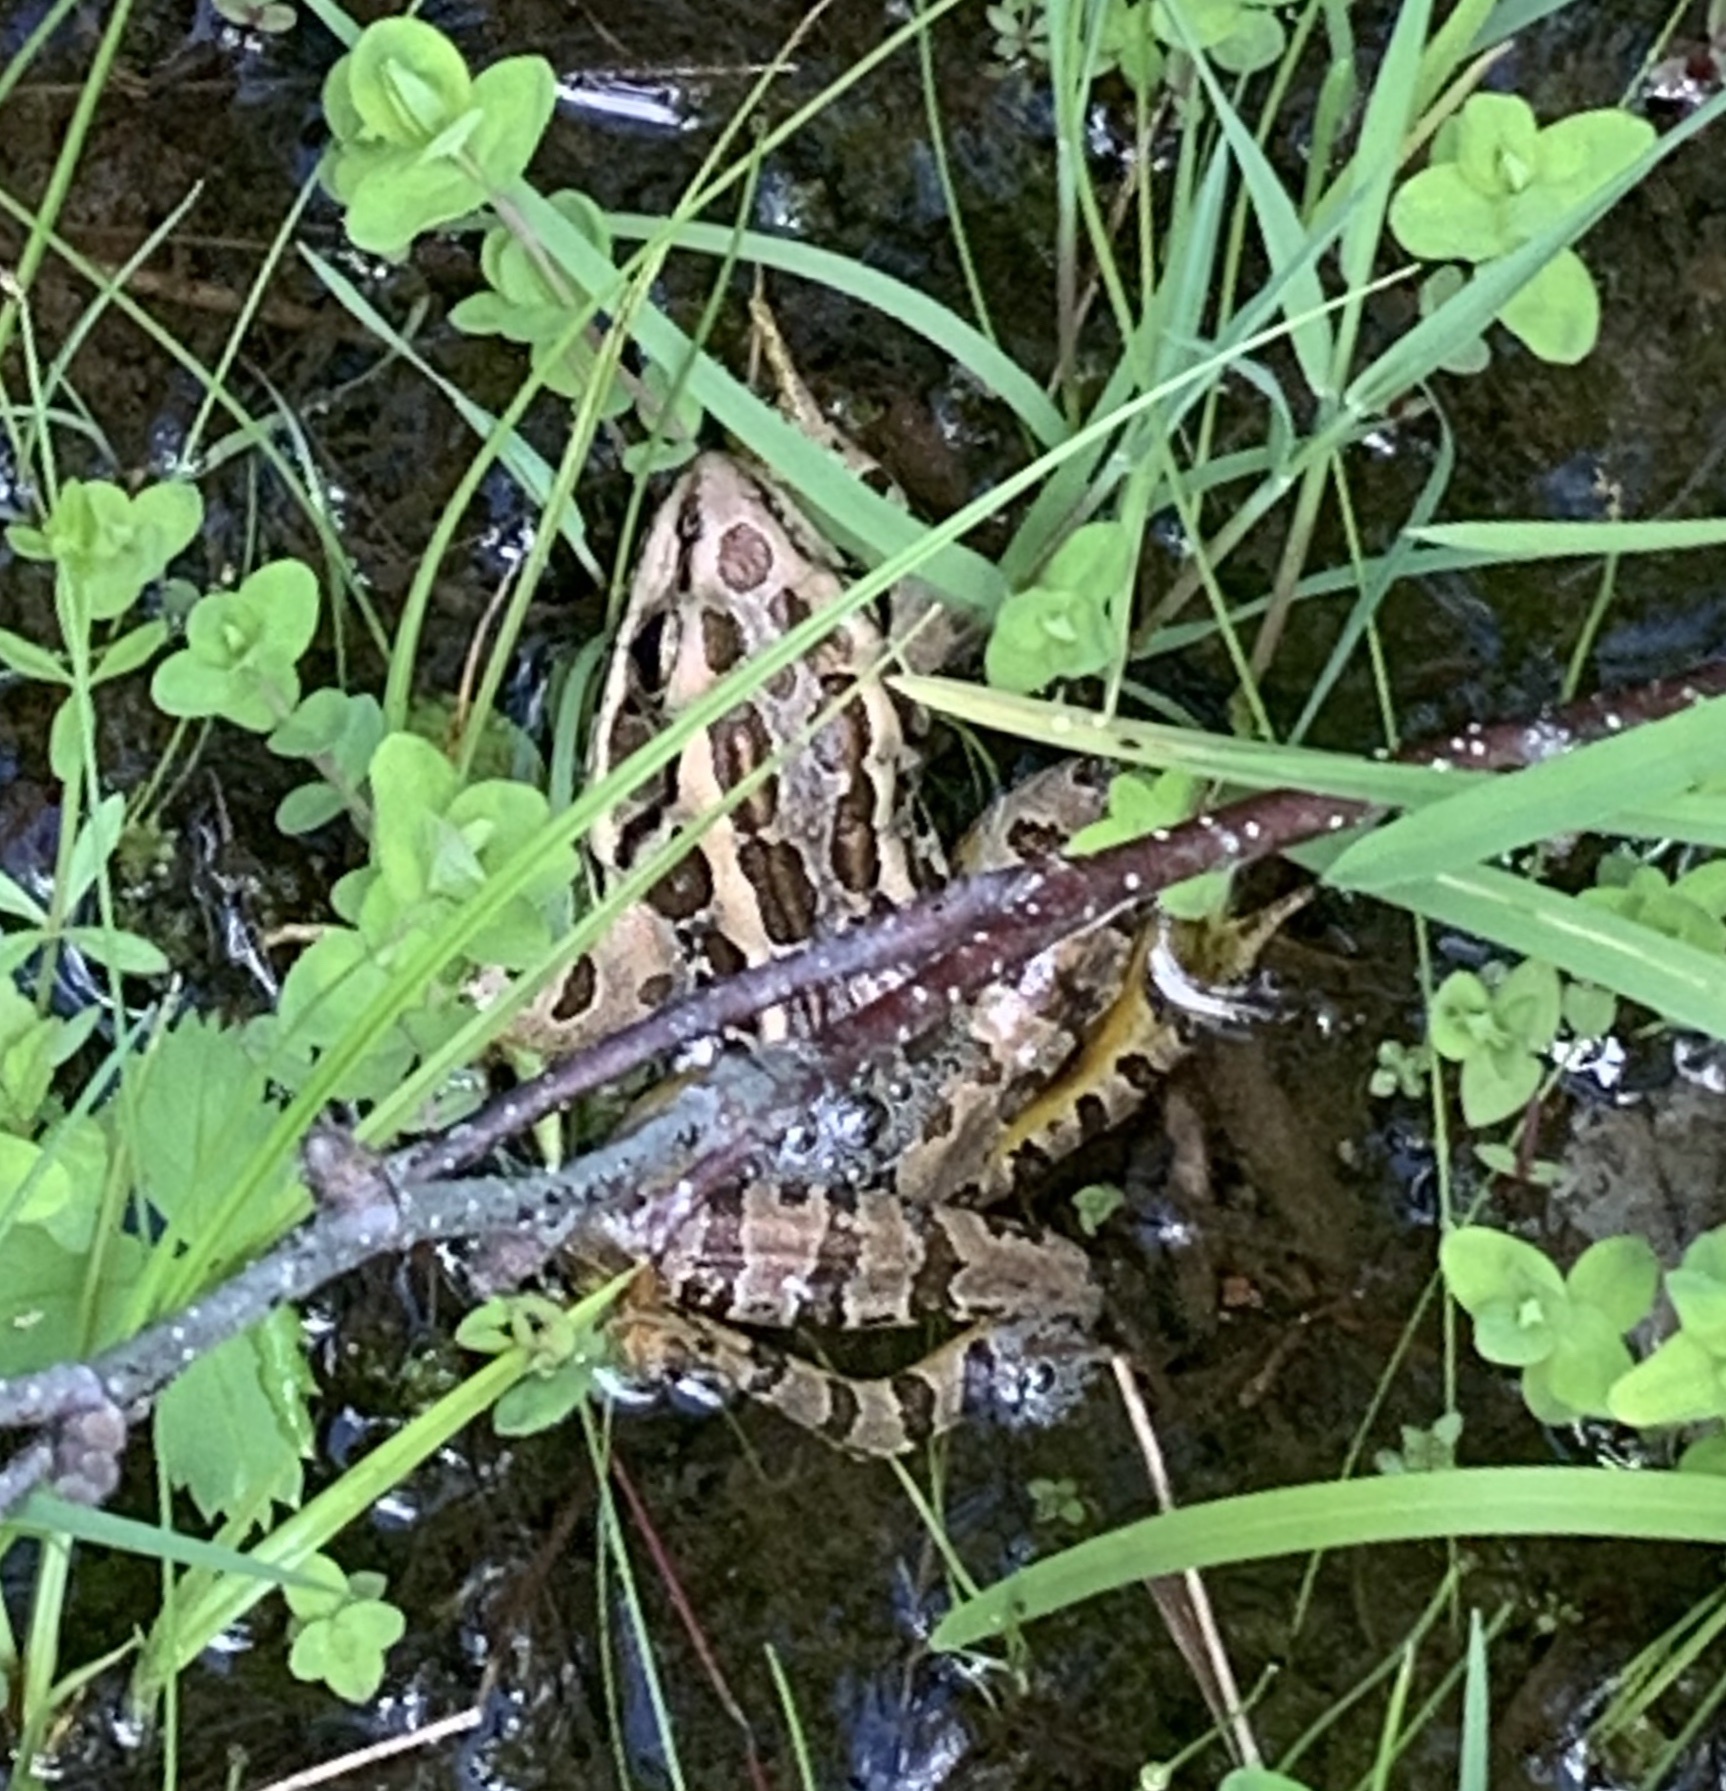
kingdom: Animalia
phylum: Chordata
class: Amphibia
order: Anura
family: Ranidae
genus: Lithobates
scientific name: Lithobates palustris
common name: Pickerel frog
